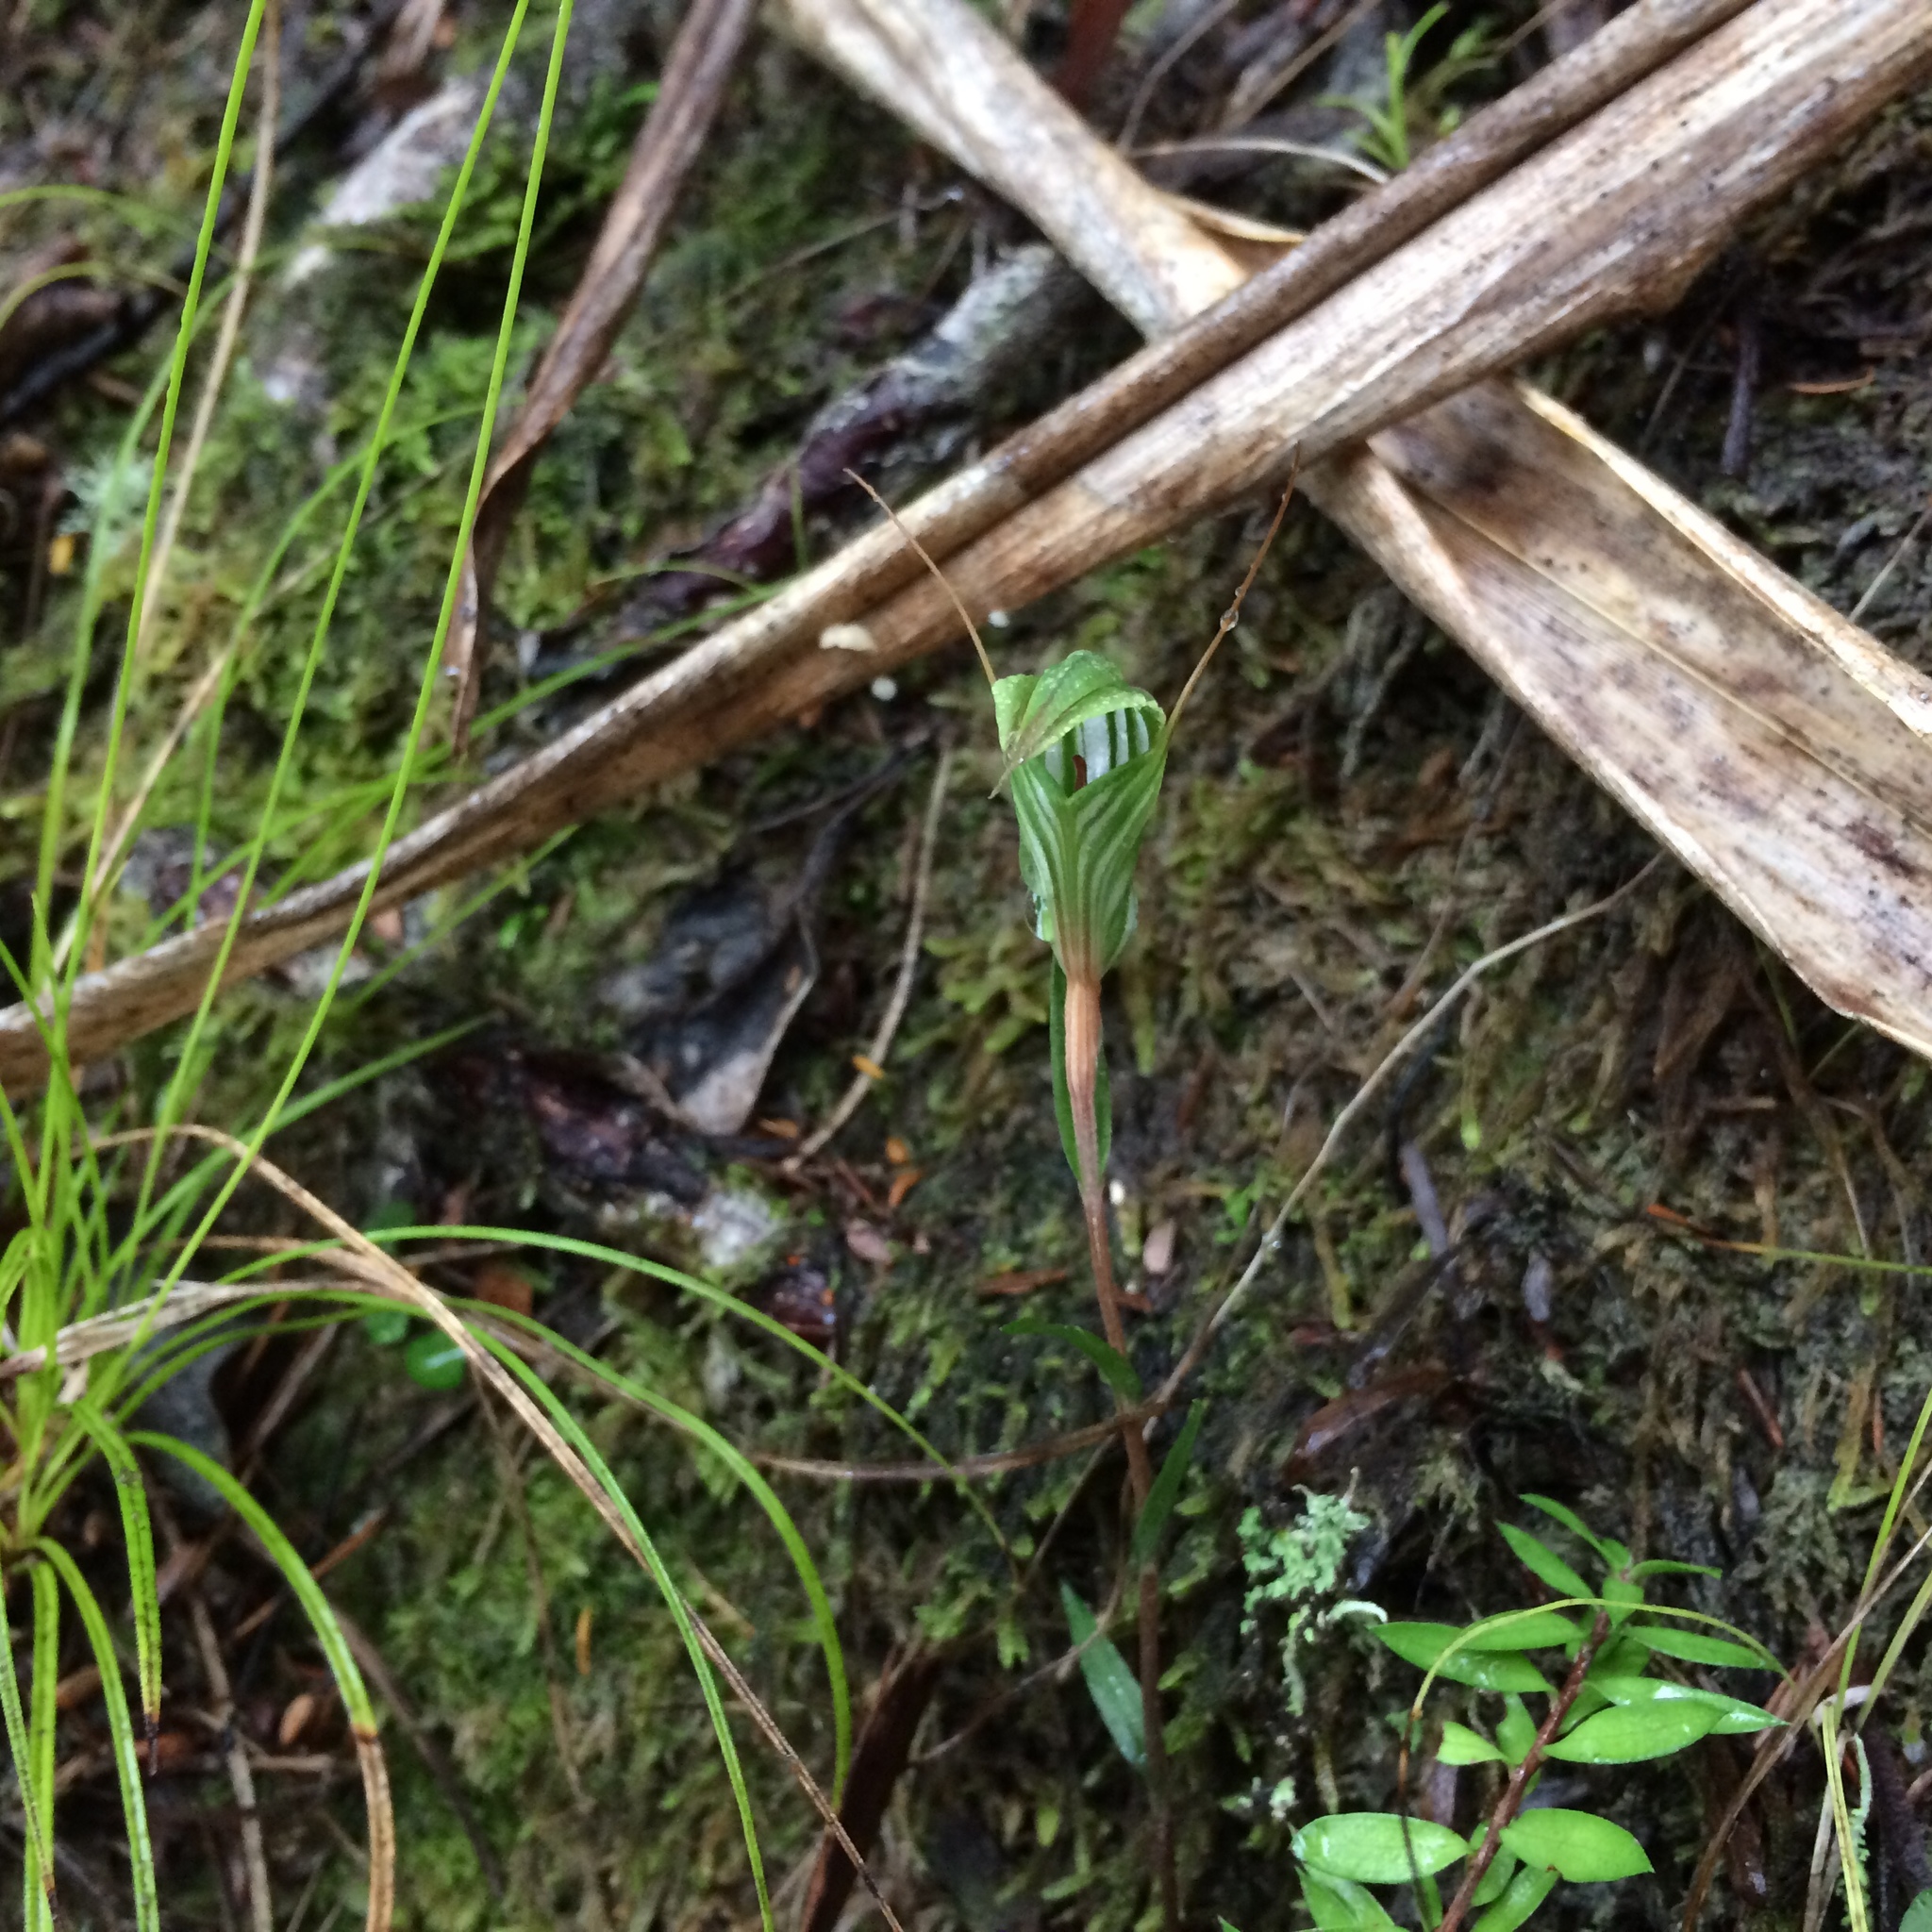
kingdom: Plantae
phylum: Tracheophyta
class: Liliopsida
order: Asparagales
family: Orchidaceae
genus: Pterostylis
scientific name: Pterostylis alobula
